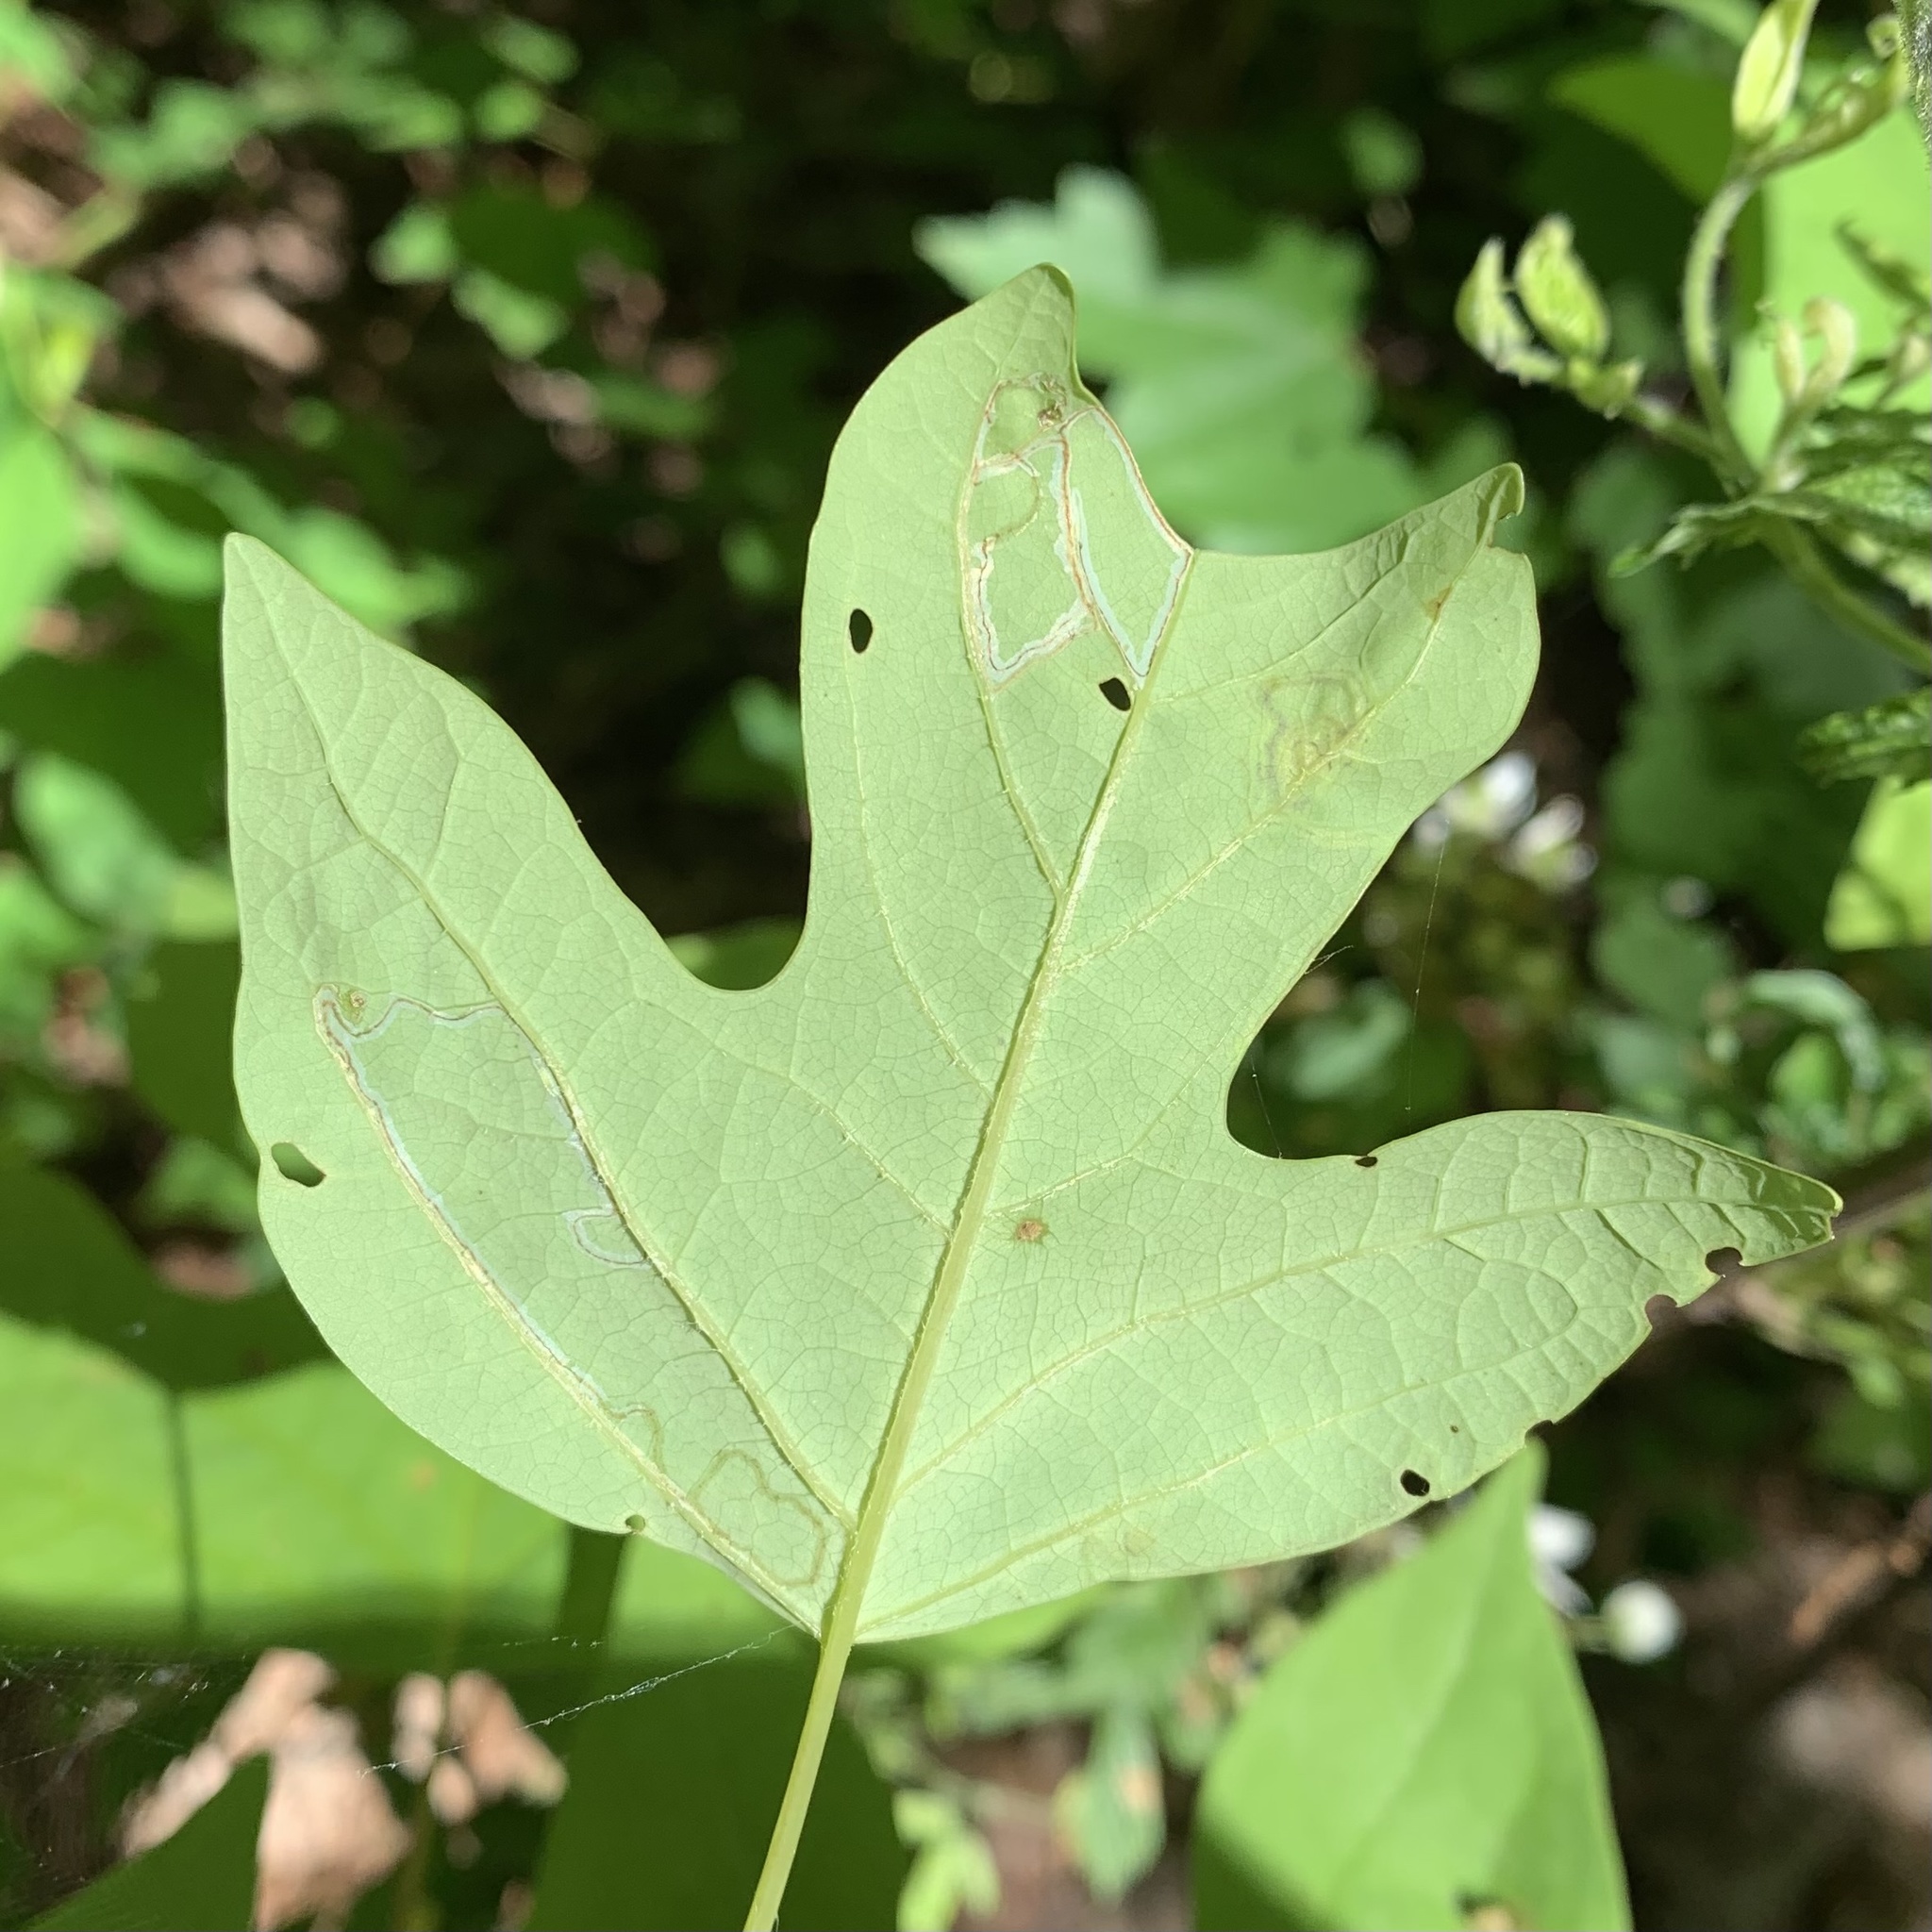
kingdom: Animalia
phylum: Arthropoda
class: Insecta
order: Lepidoptera
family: Gracillariidae
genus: Phyllocnistis
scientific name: Phyllocnistis liriodendronella
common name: Tulip tree leaf miner
